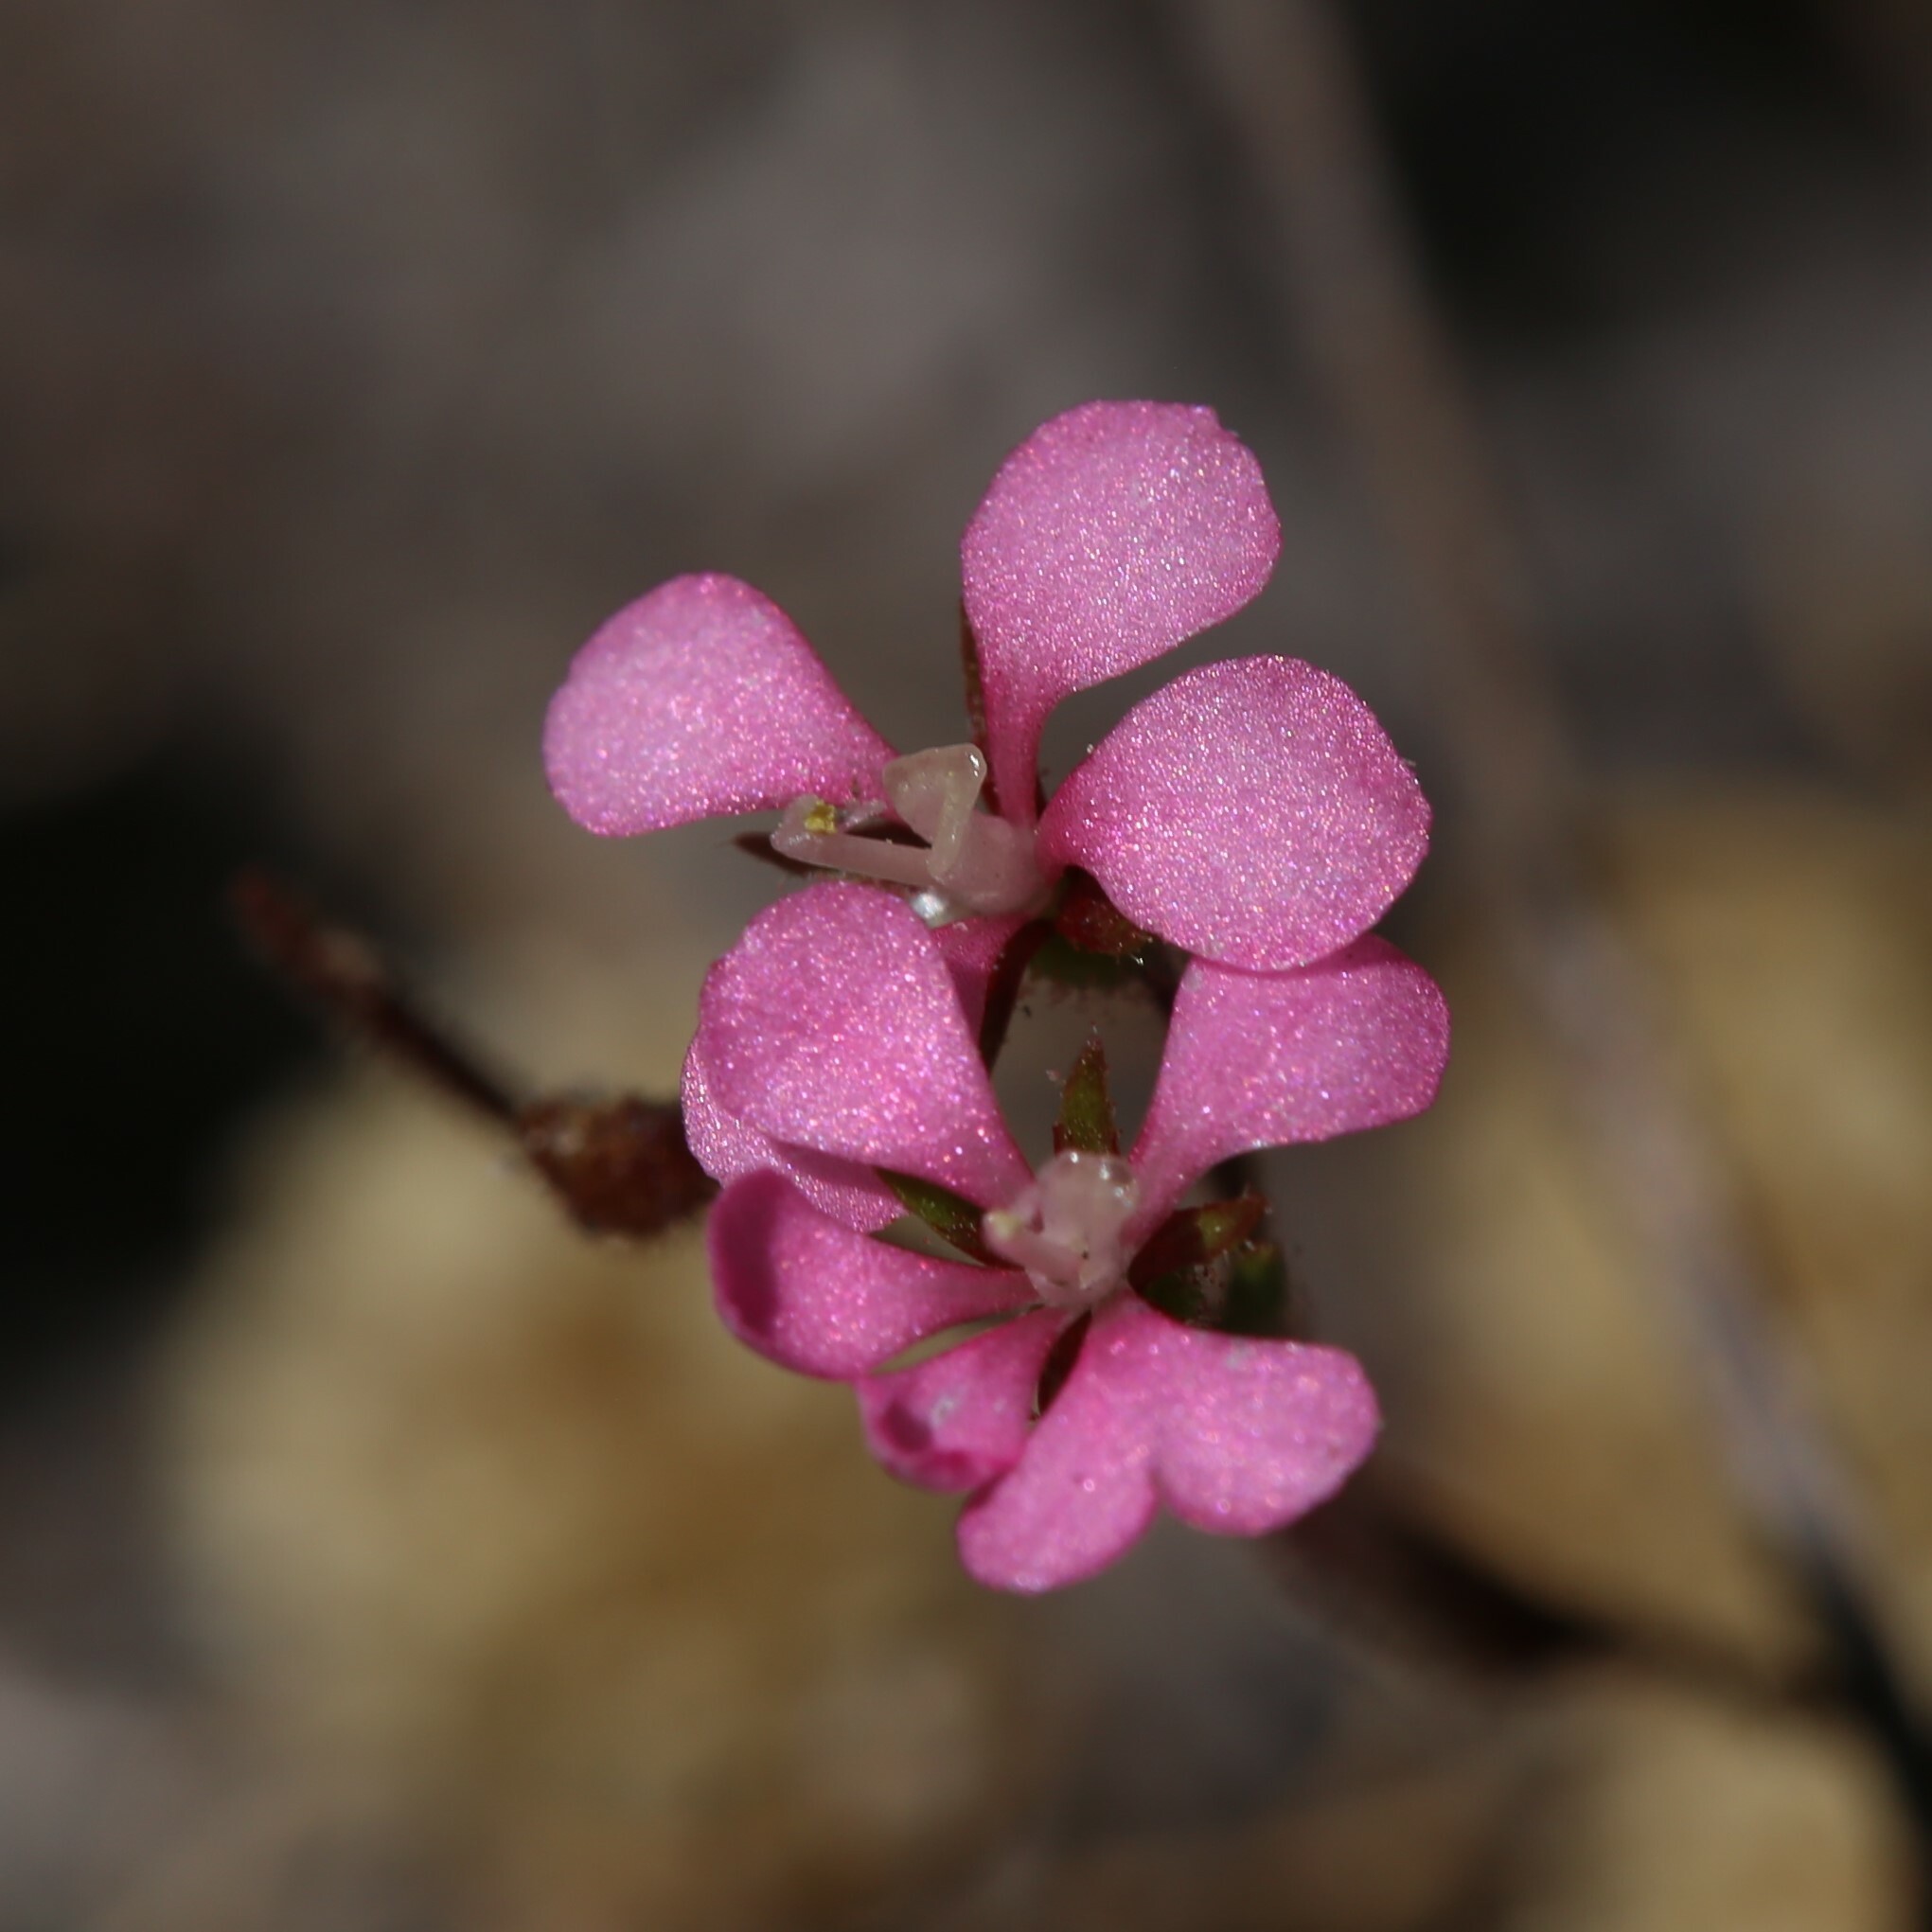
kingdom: Plantae
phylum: Tracheophyta
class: Magnoliopsida
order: Asterales
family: Stylidiaceae
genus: Levenhookia
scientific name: Levenhookia stipitata
